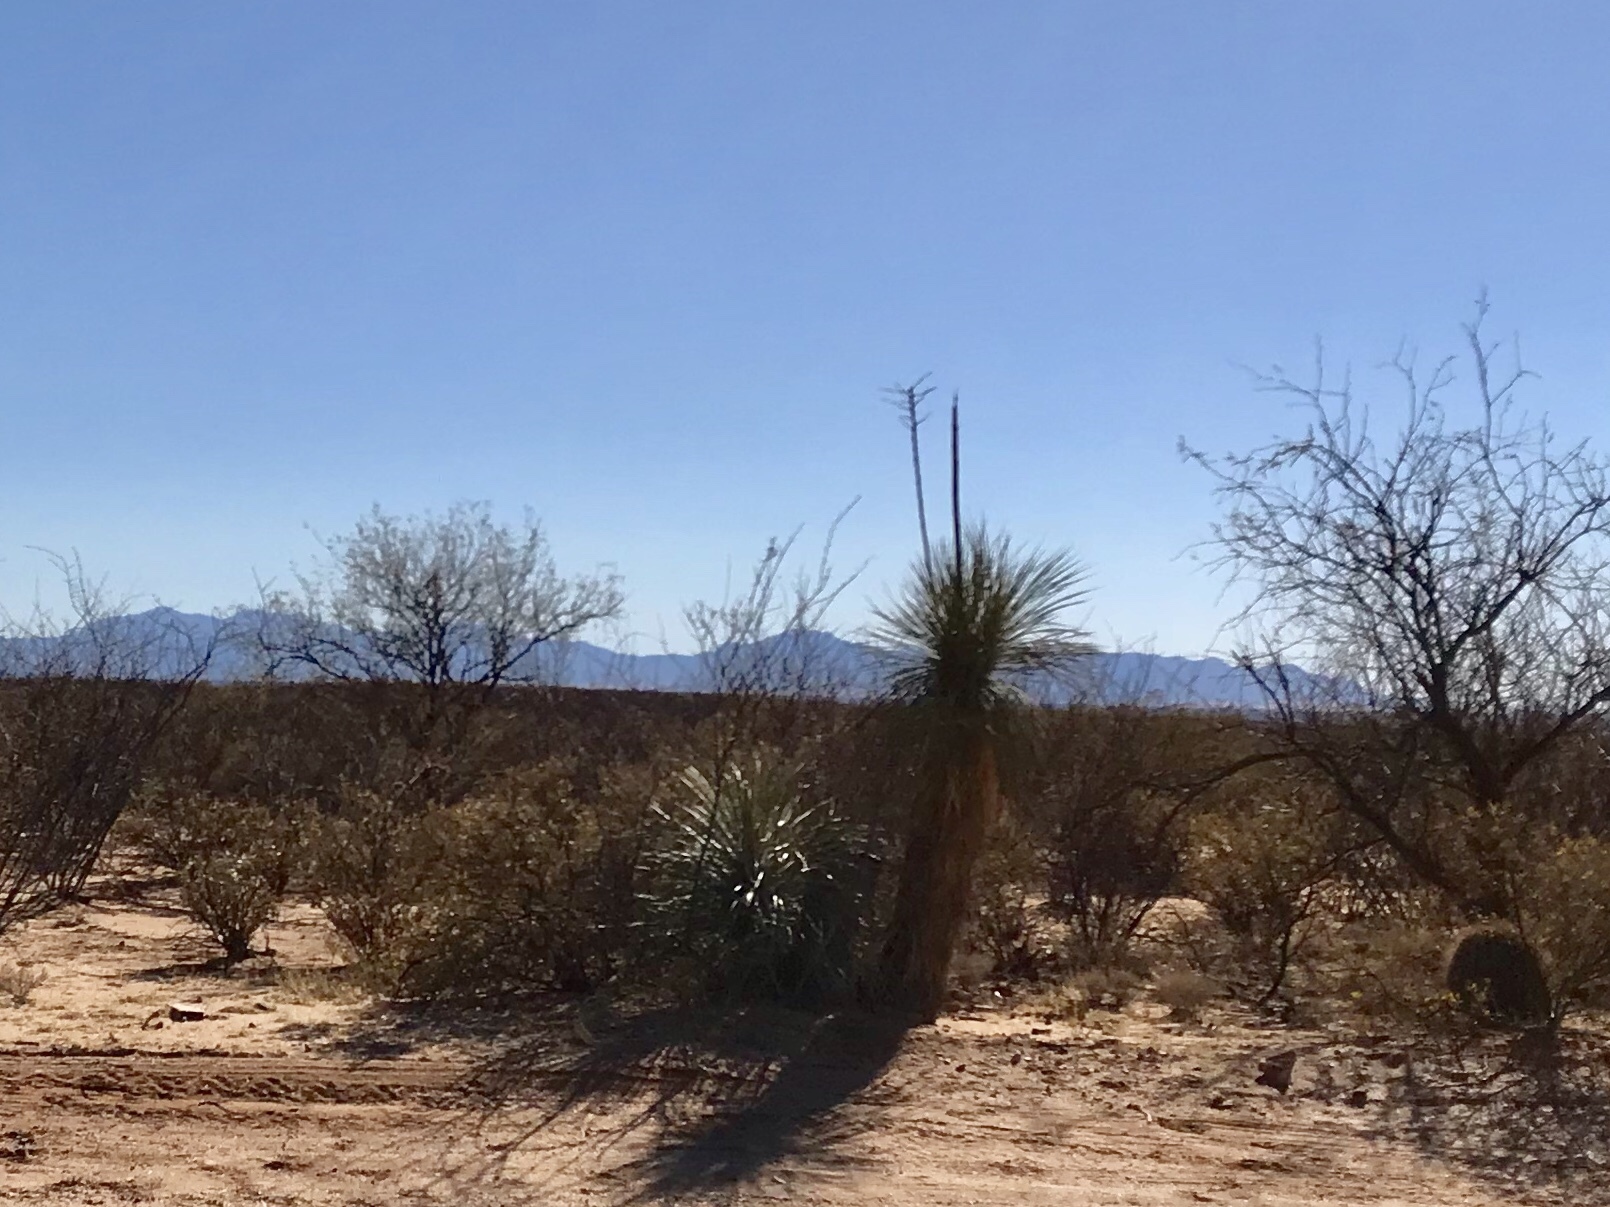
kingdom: Plantae
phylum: Tracheophyta
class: Liliopsida
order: Asparagales
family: Asparagaceae
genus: Yucca
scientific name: Yucca elata
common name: Palmella
